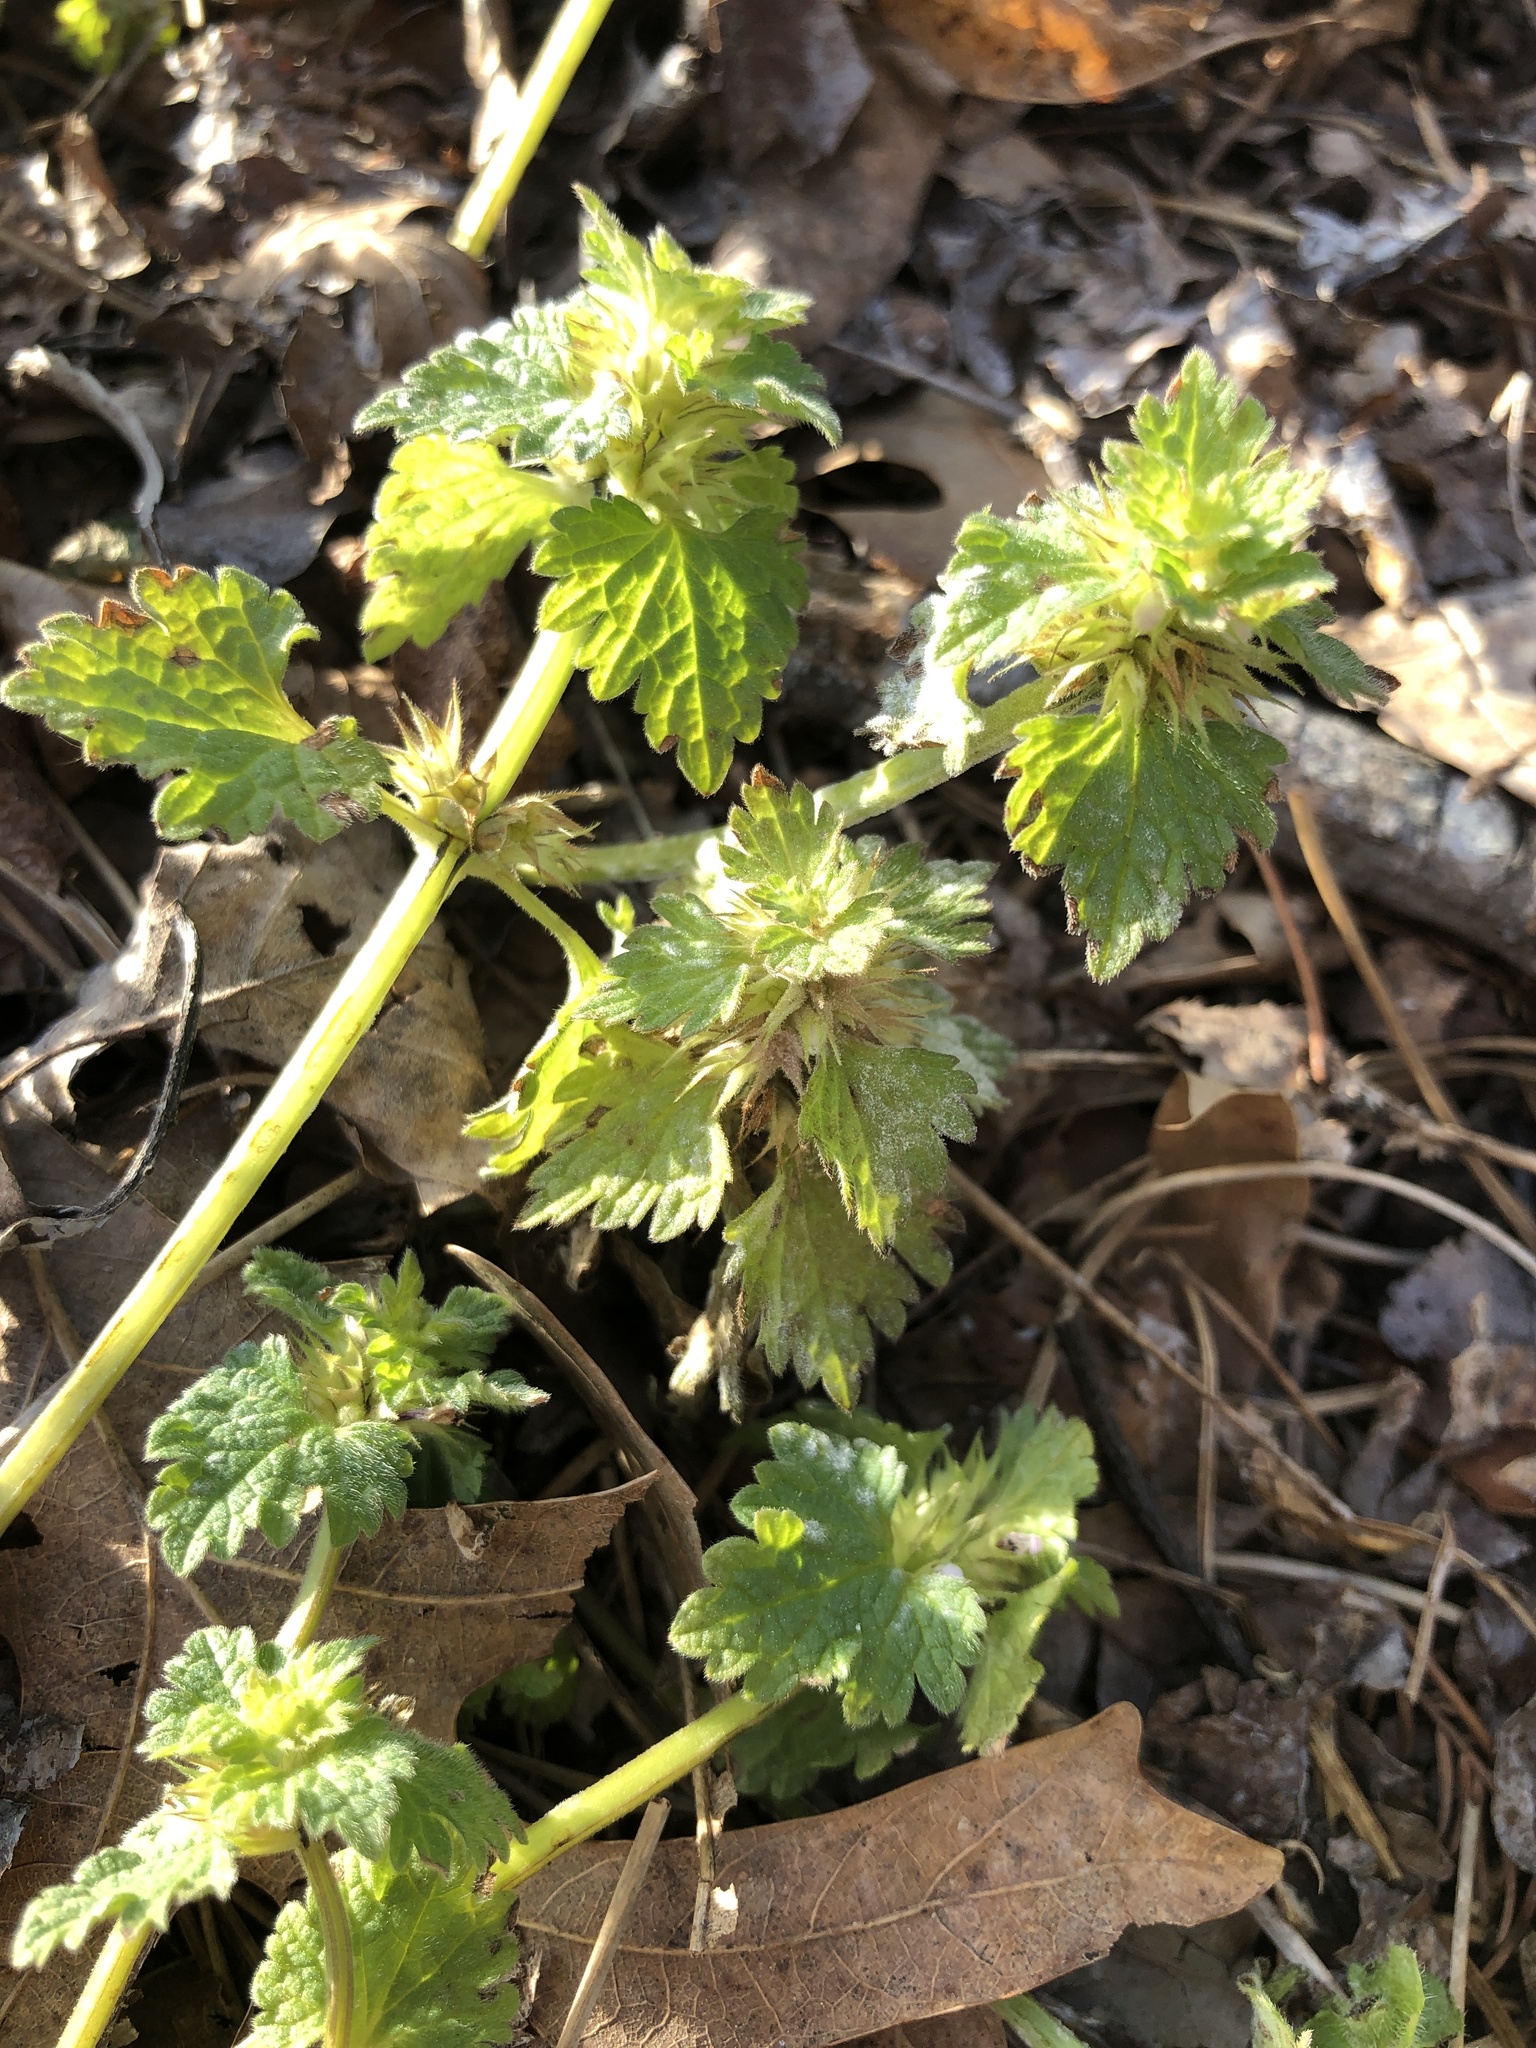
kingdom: Plantae
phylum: Tracheophyta
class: Magnoliopsida
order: Lamiales
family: Lamiaceae
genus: Lamium
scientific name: Lamium hybridum
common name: Cut-leaved dead-nettle
